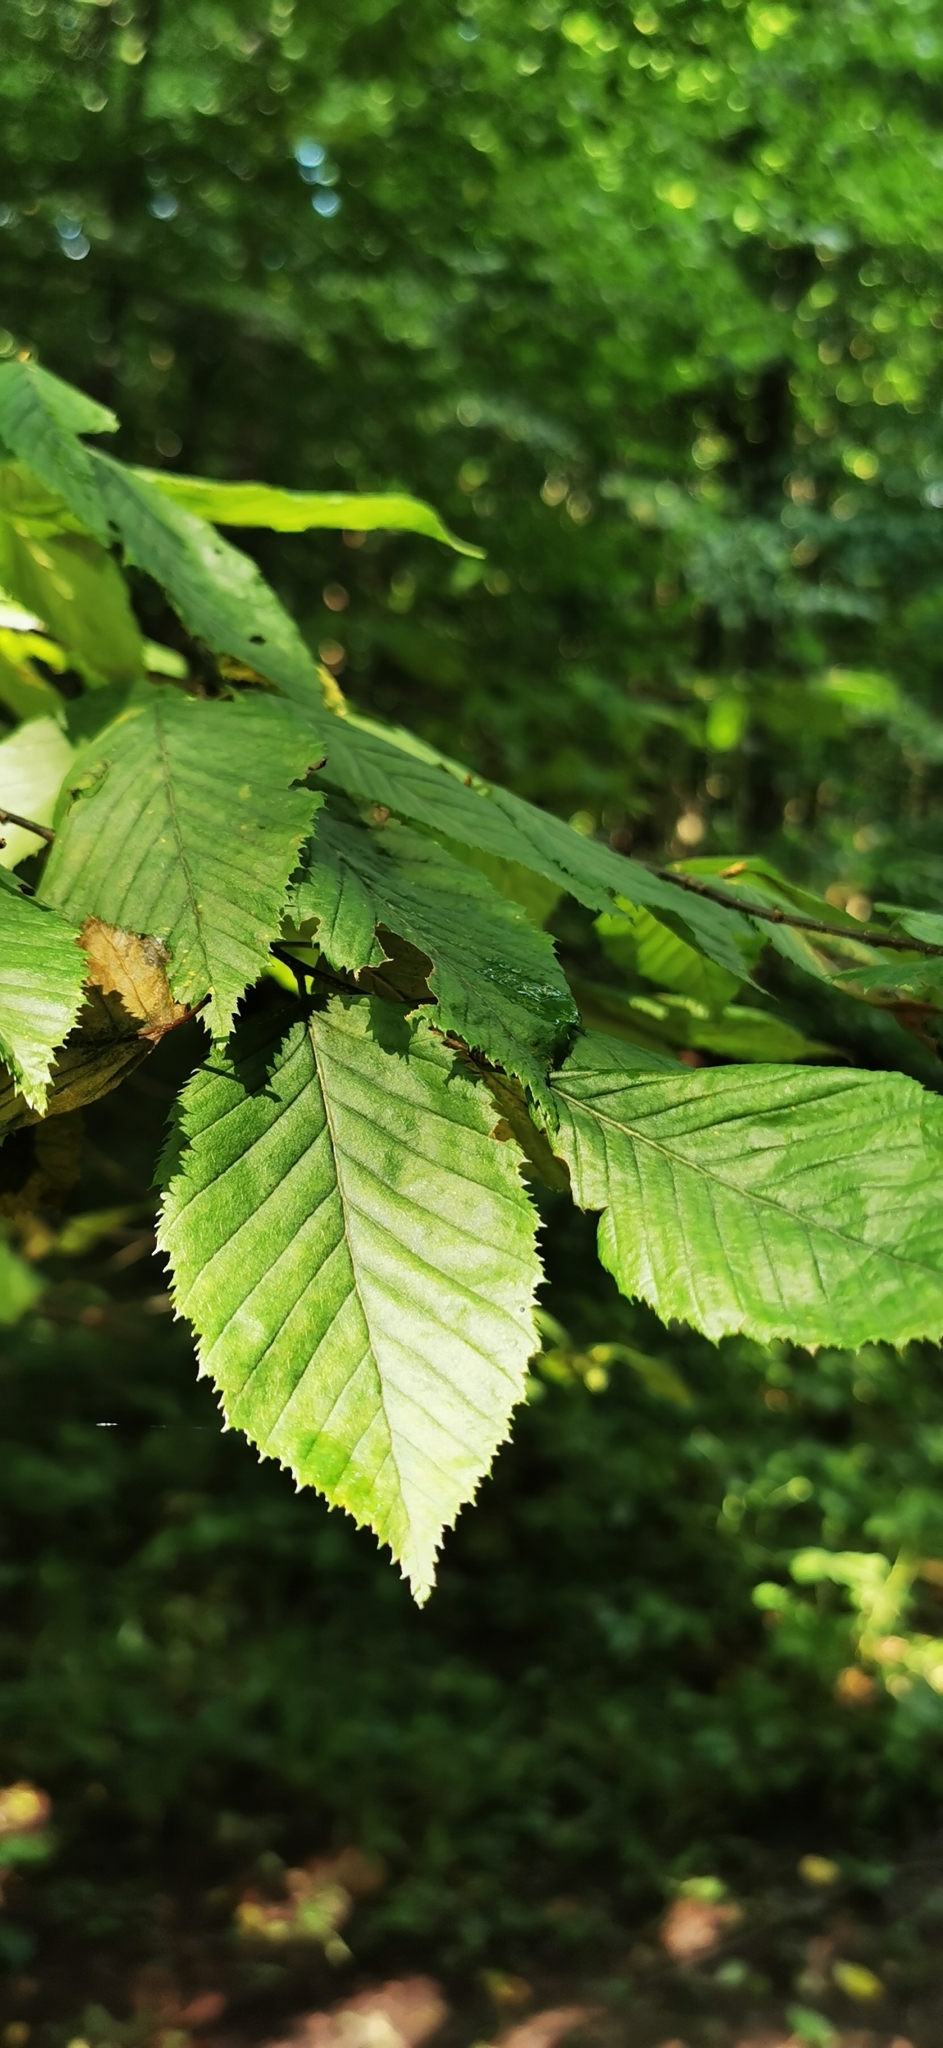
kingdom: Plantae
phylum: Tracheophyta
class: Magnoliopsida
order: Fagales
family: Betulaceae
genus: Carpinus
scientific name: Carpinus betulus
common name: Hornbeam
